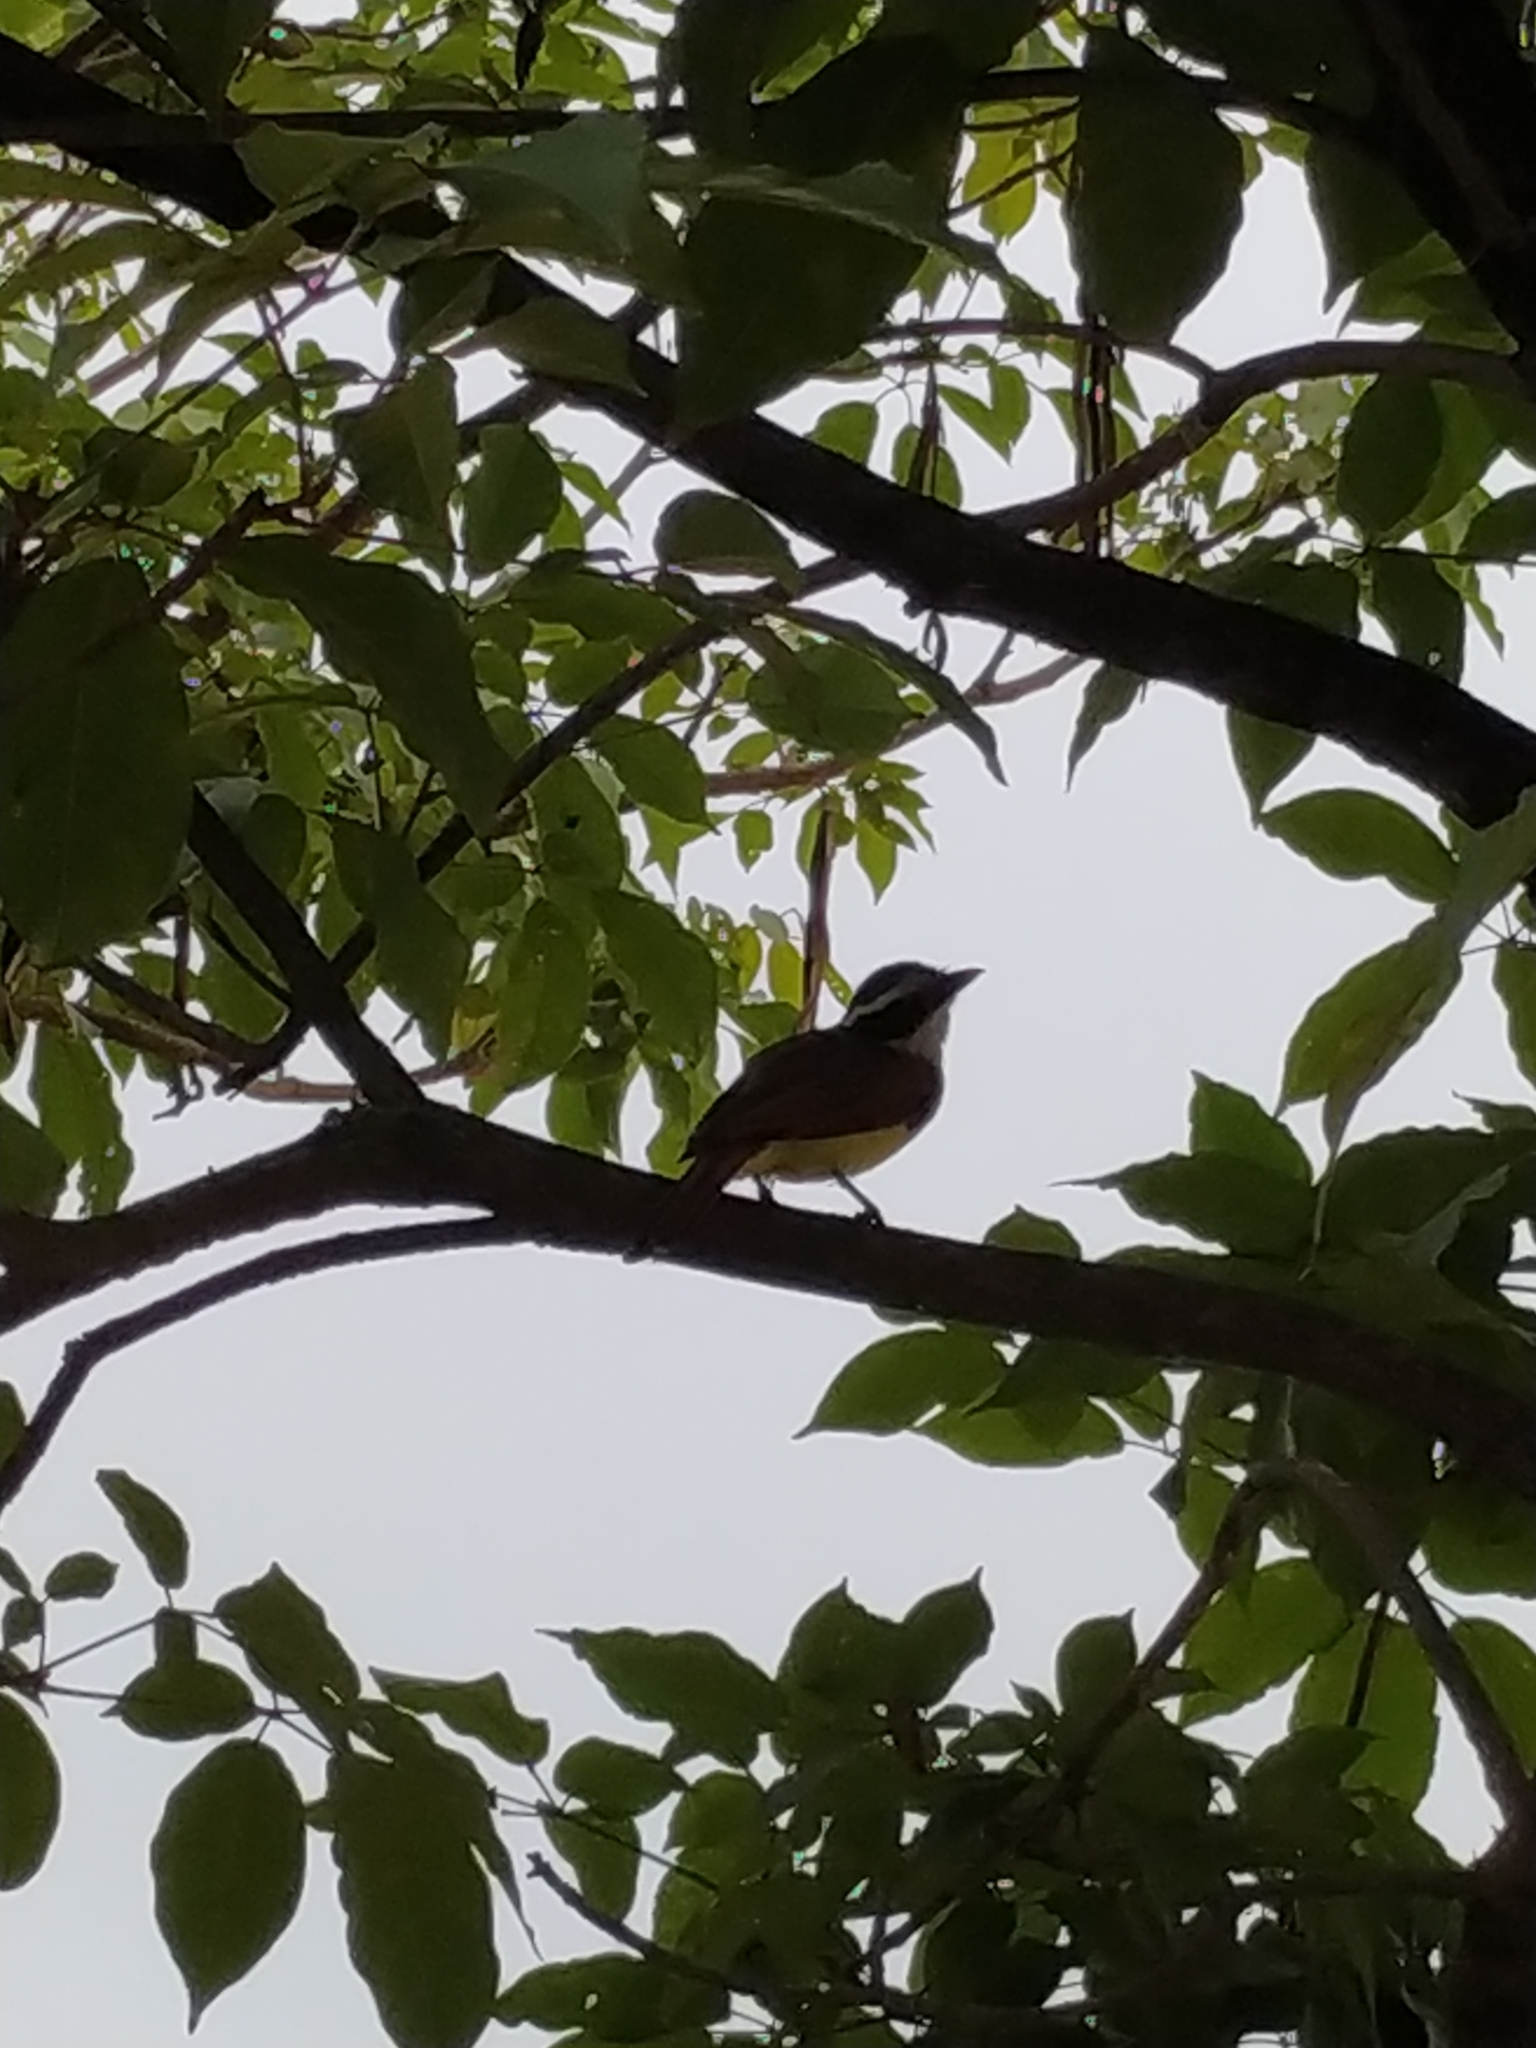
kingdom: Animalia
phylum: Chordata
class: Aves
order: Passeriformes
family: Tyrannidae
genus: Pitangus
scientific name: Pitangus sulphuratus
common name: Great kiskadee
